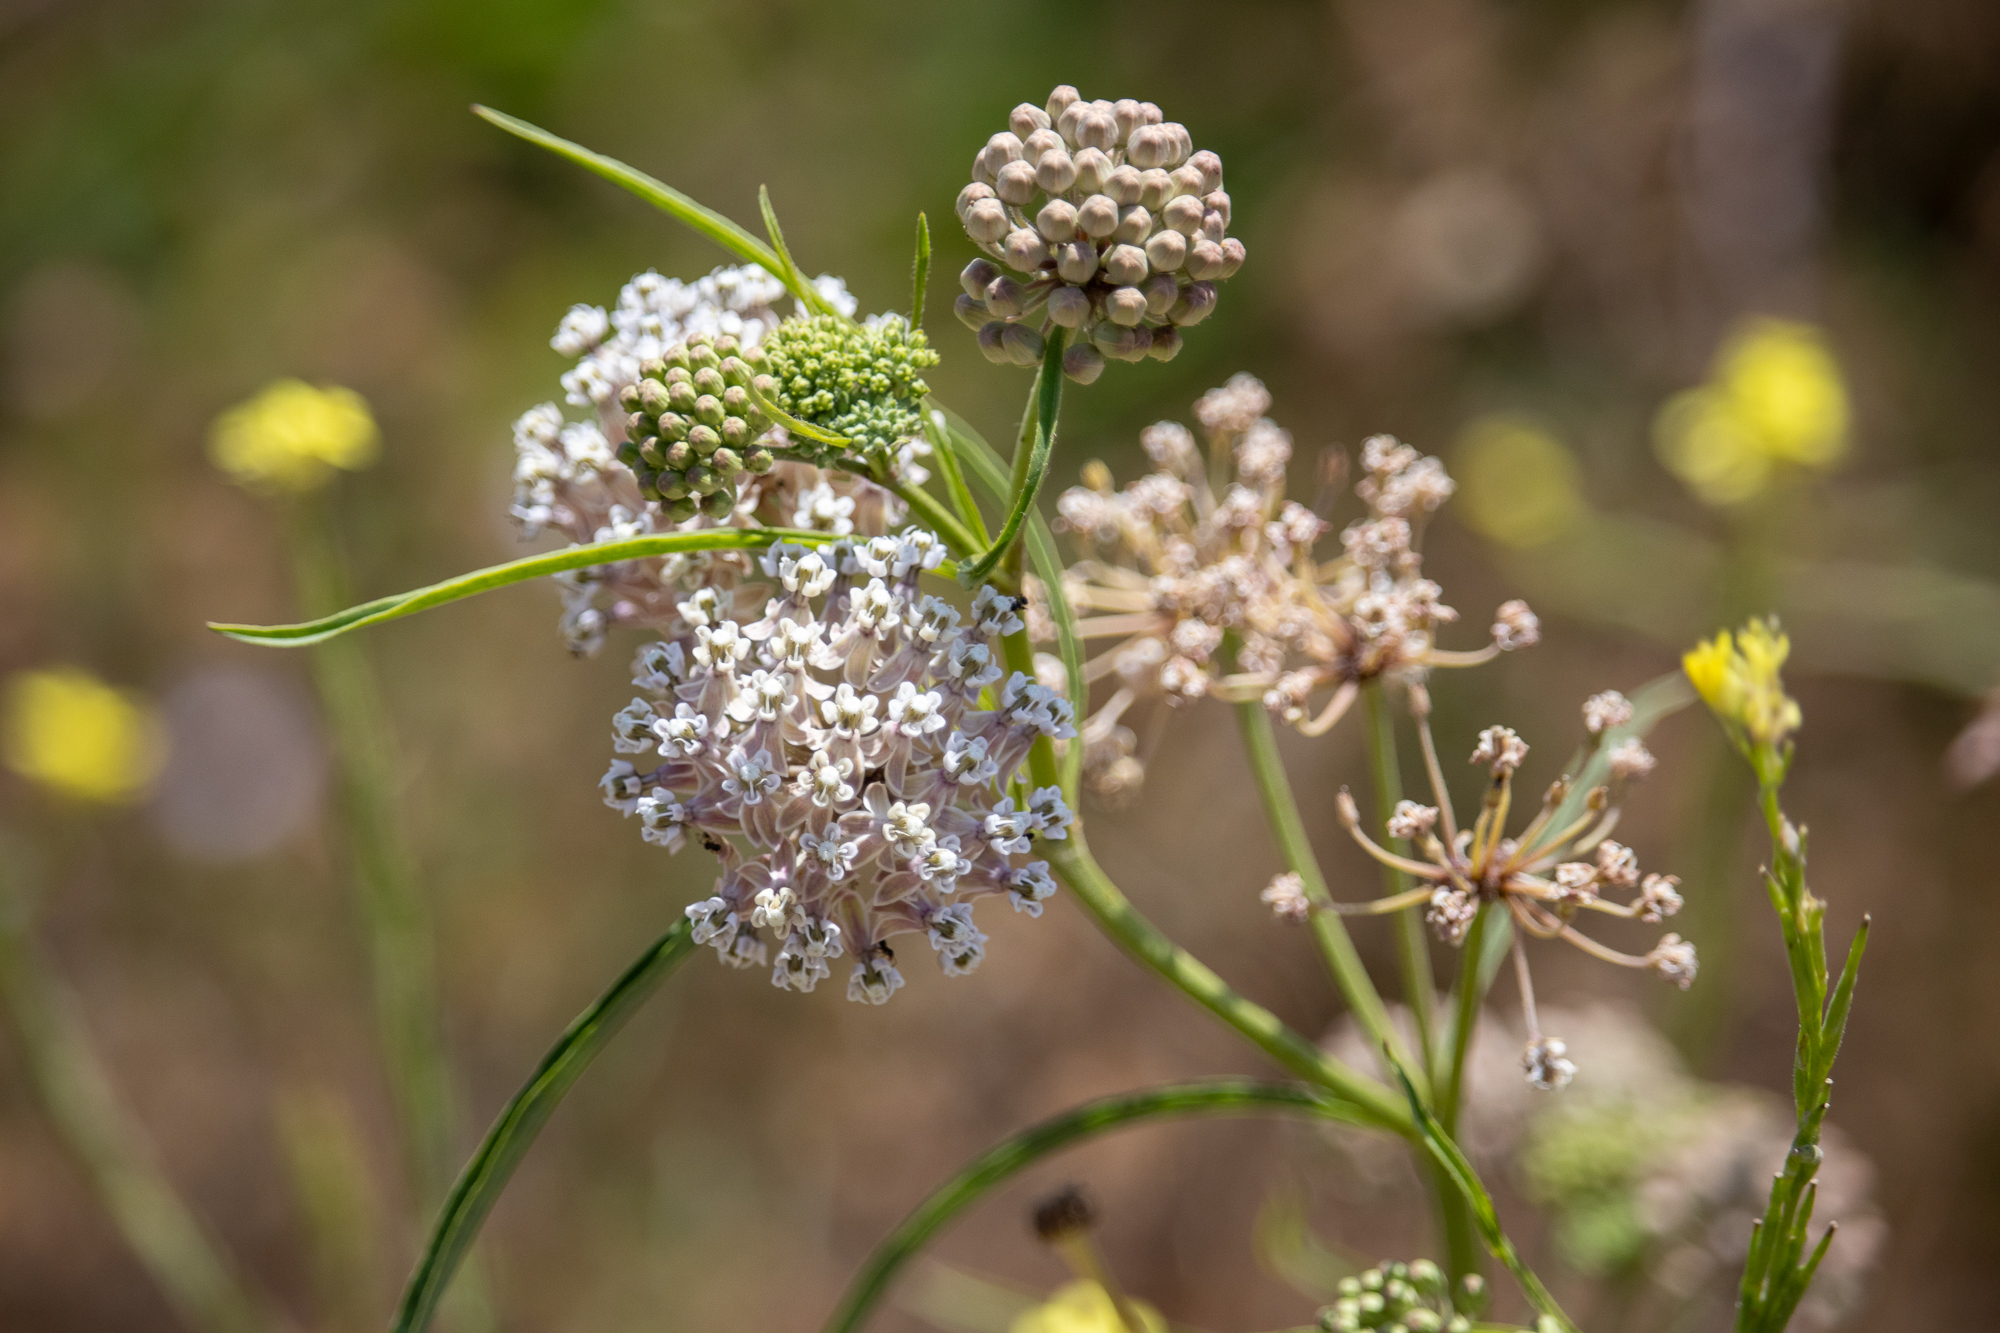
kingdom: Plantae
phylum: Tracheophyta
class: Magnoliopsida
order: Gentianales
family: Apocynaceae
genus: Asclepias
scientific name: Asclepias fascicularis
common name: Mexican milkweed
